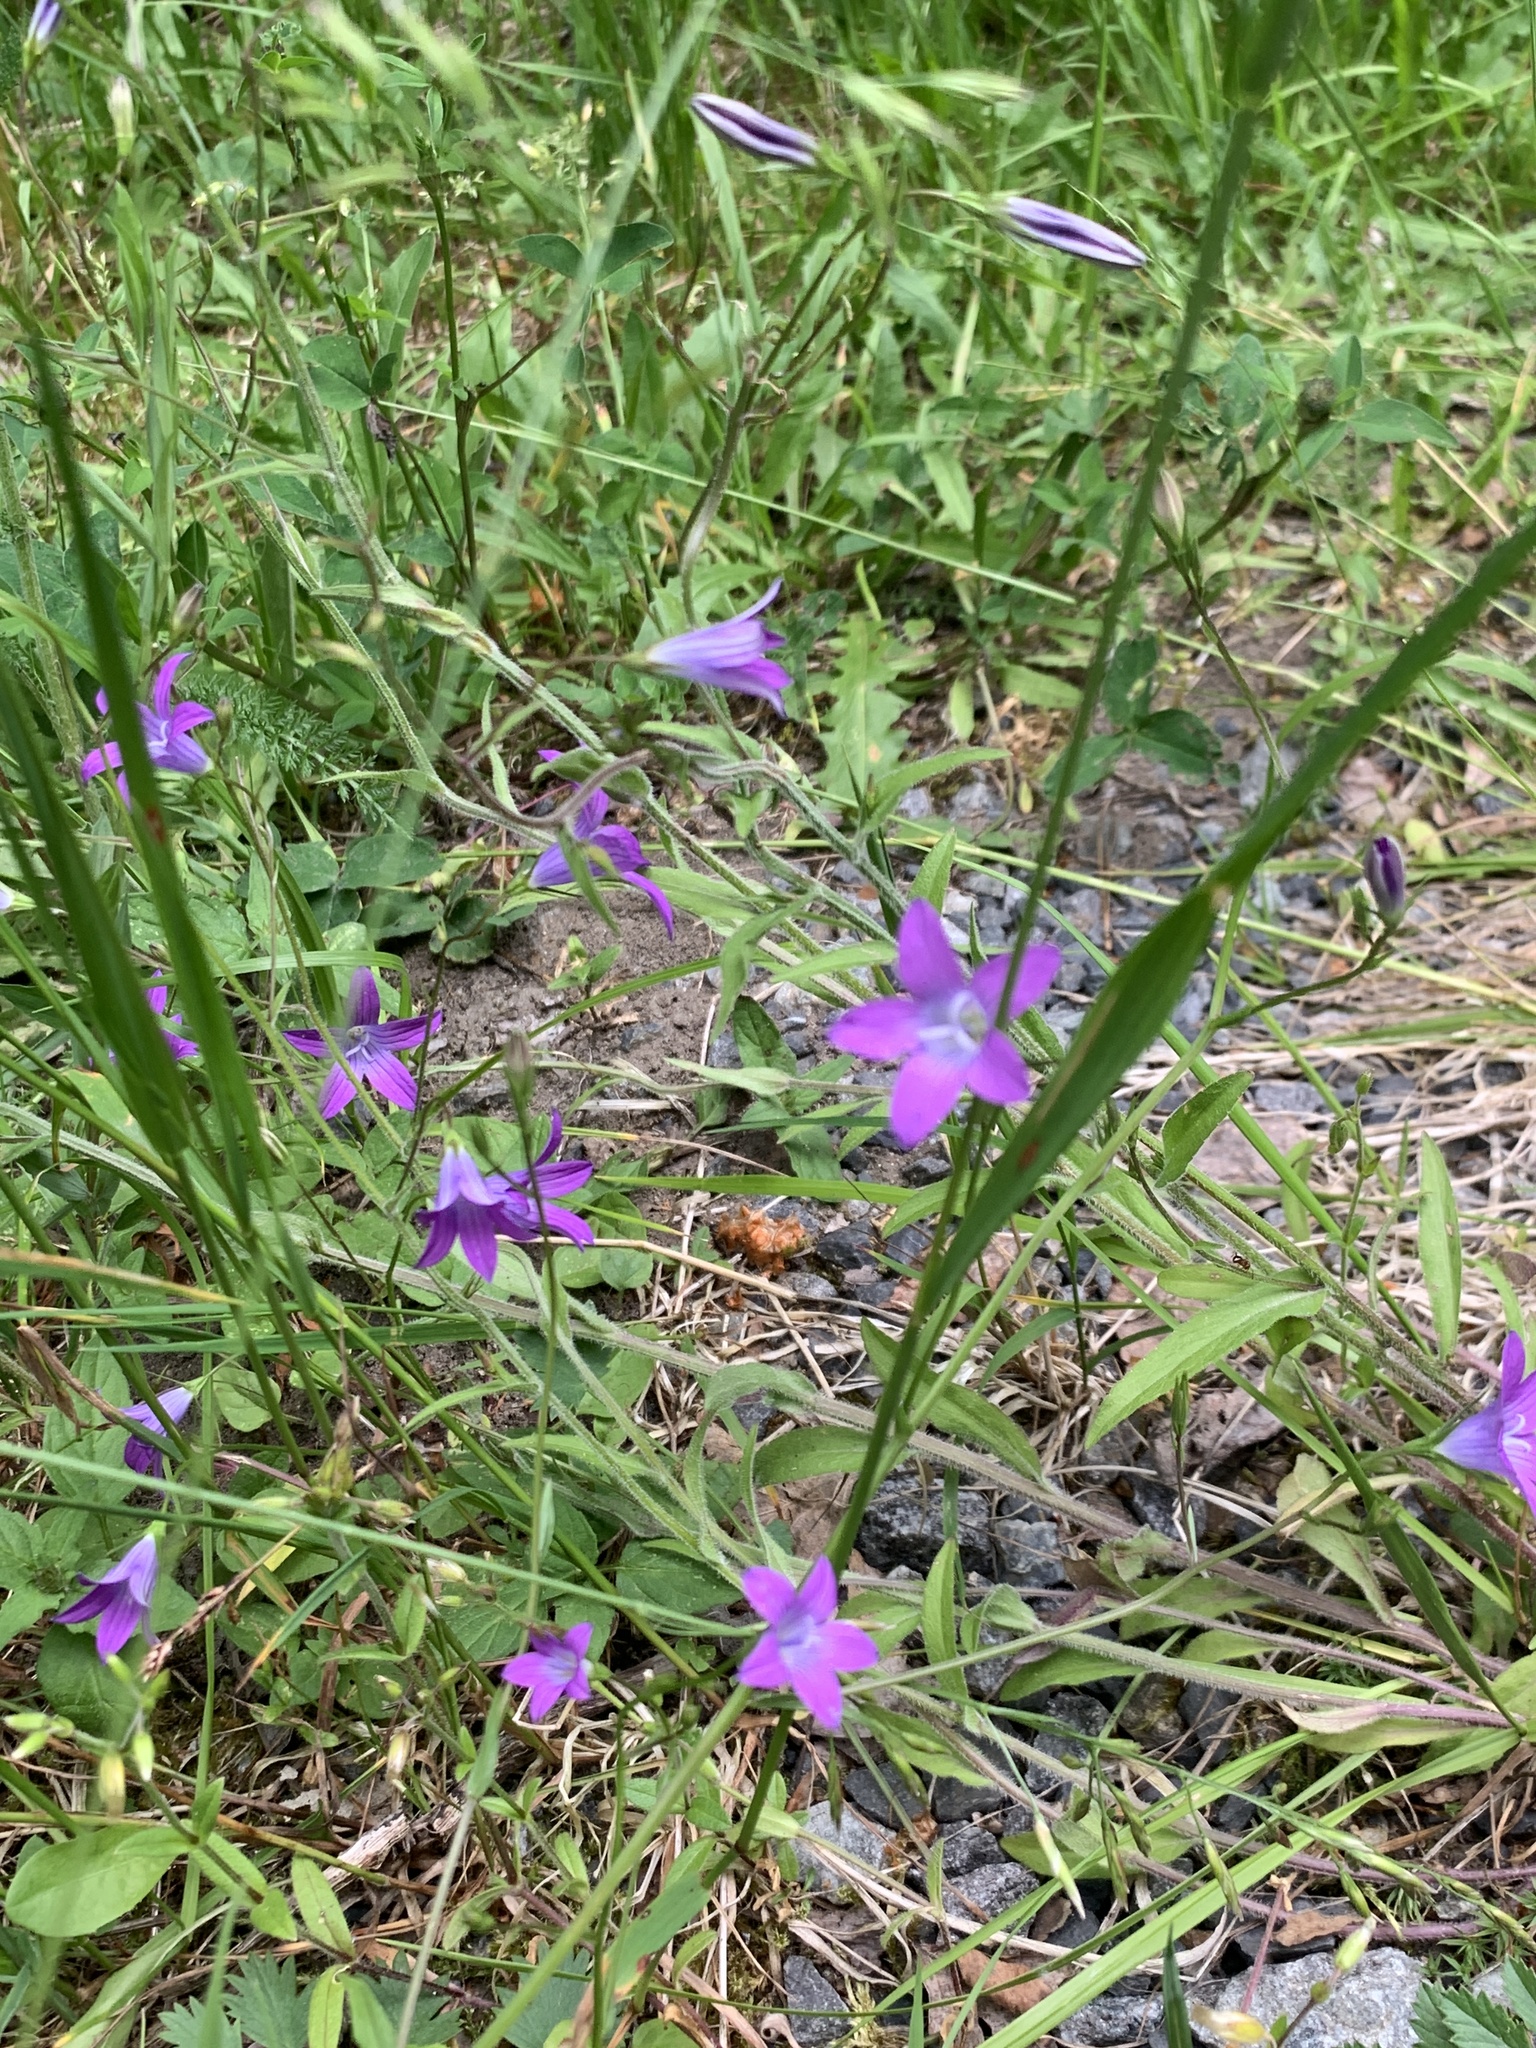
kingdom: Plantae
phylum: Tracheophyta
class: Magnoliopsida
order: Asterales
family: Campanulaceae
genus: Campanula
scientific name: Campanula patula
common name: Spreading bellflower
